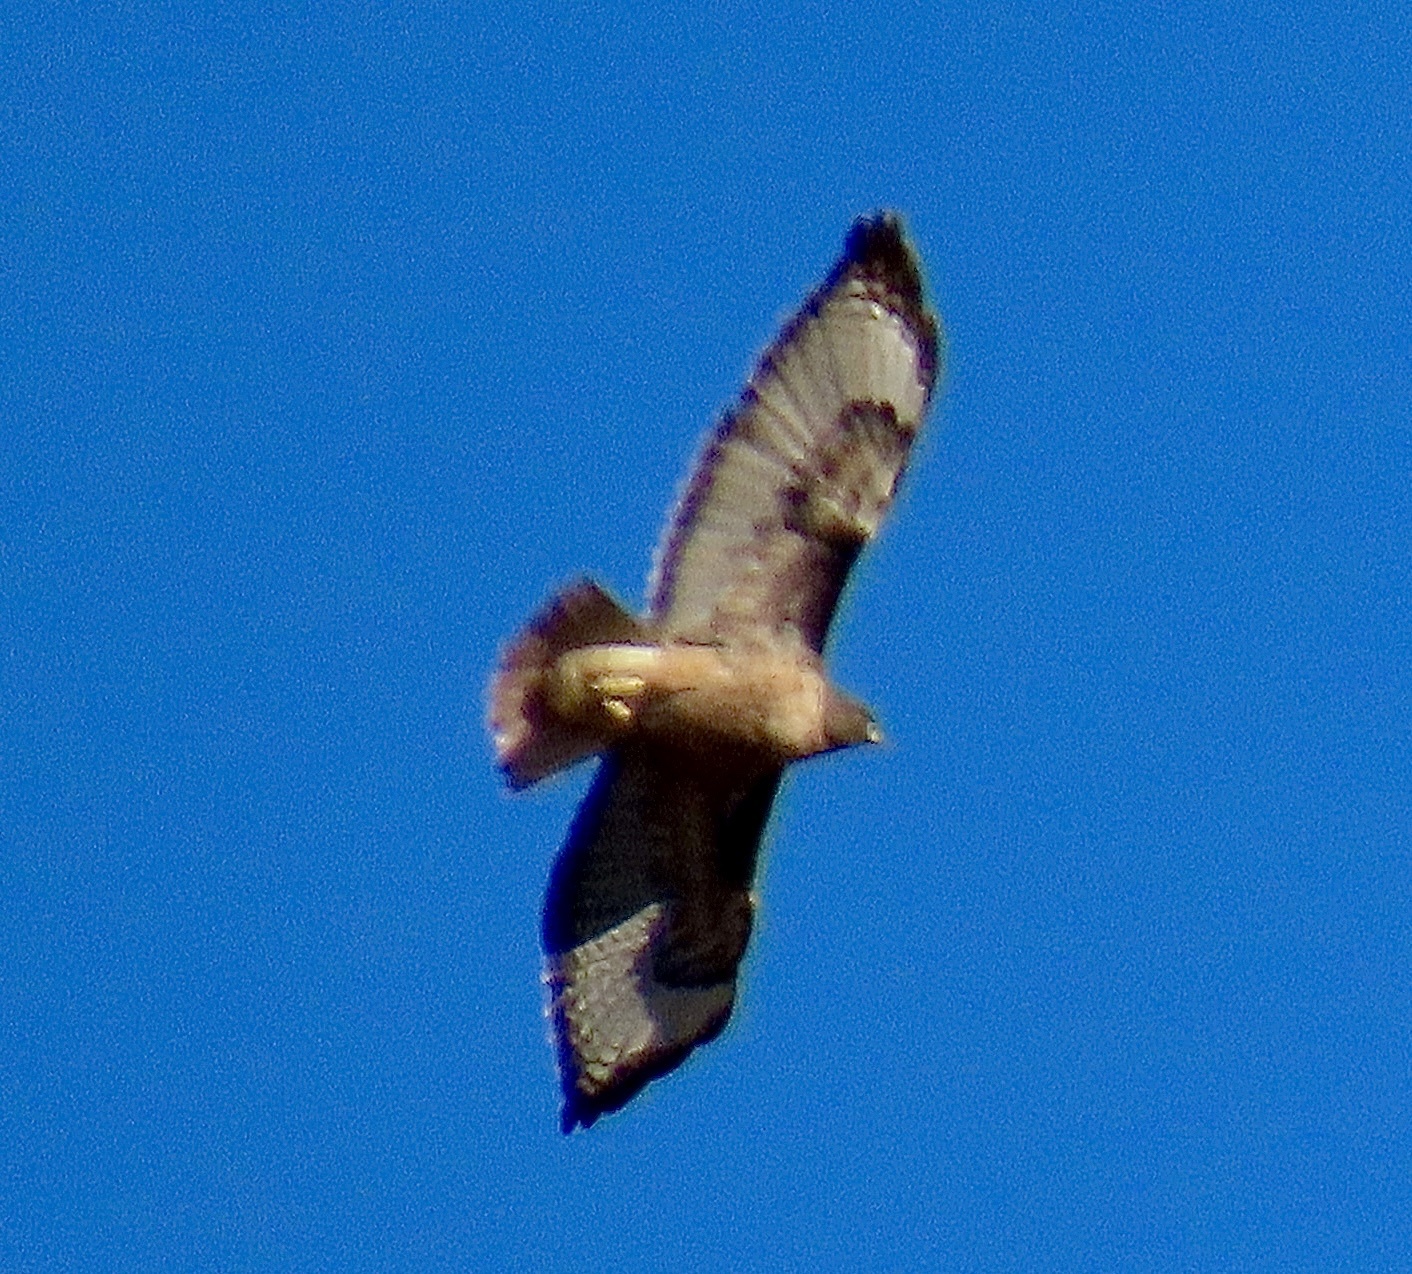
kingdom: Animalia
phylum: Chordata
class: Aves
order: Accipitriformes
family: Accipitridae
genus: Buteo
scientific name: Buteo jamaicensis
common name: Red-tailed hawk
